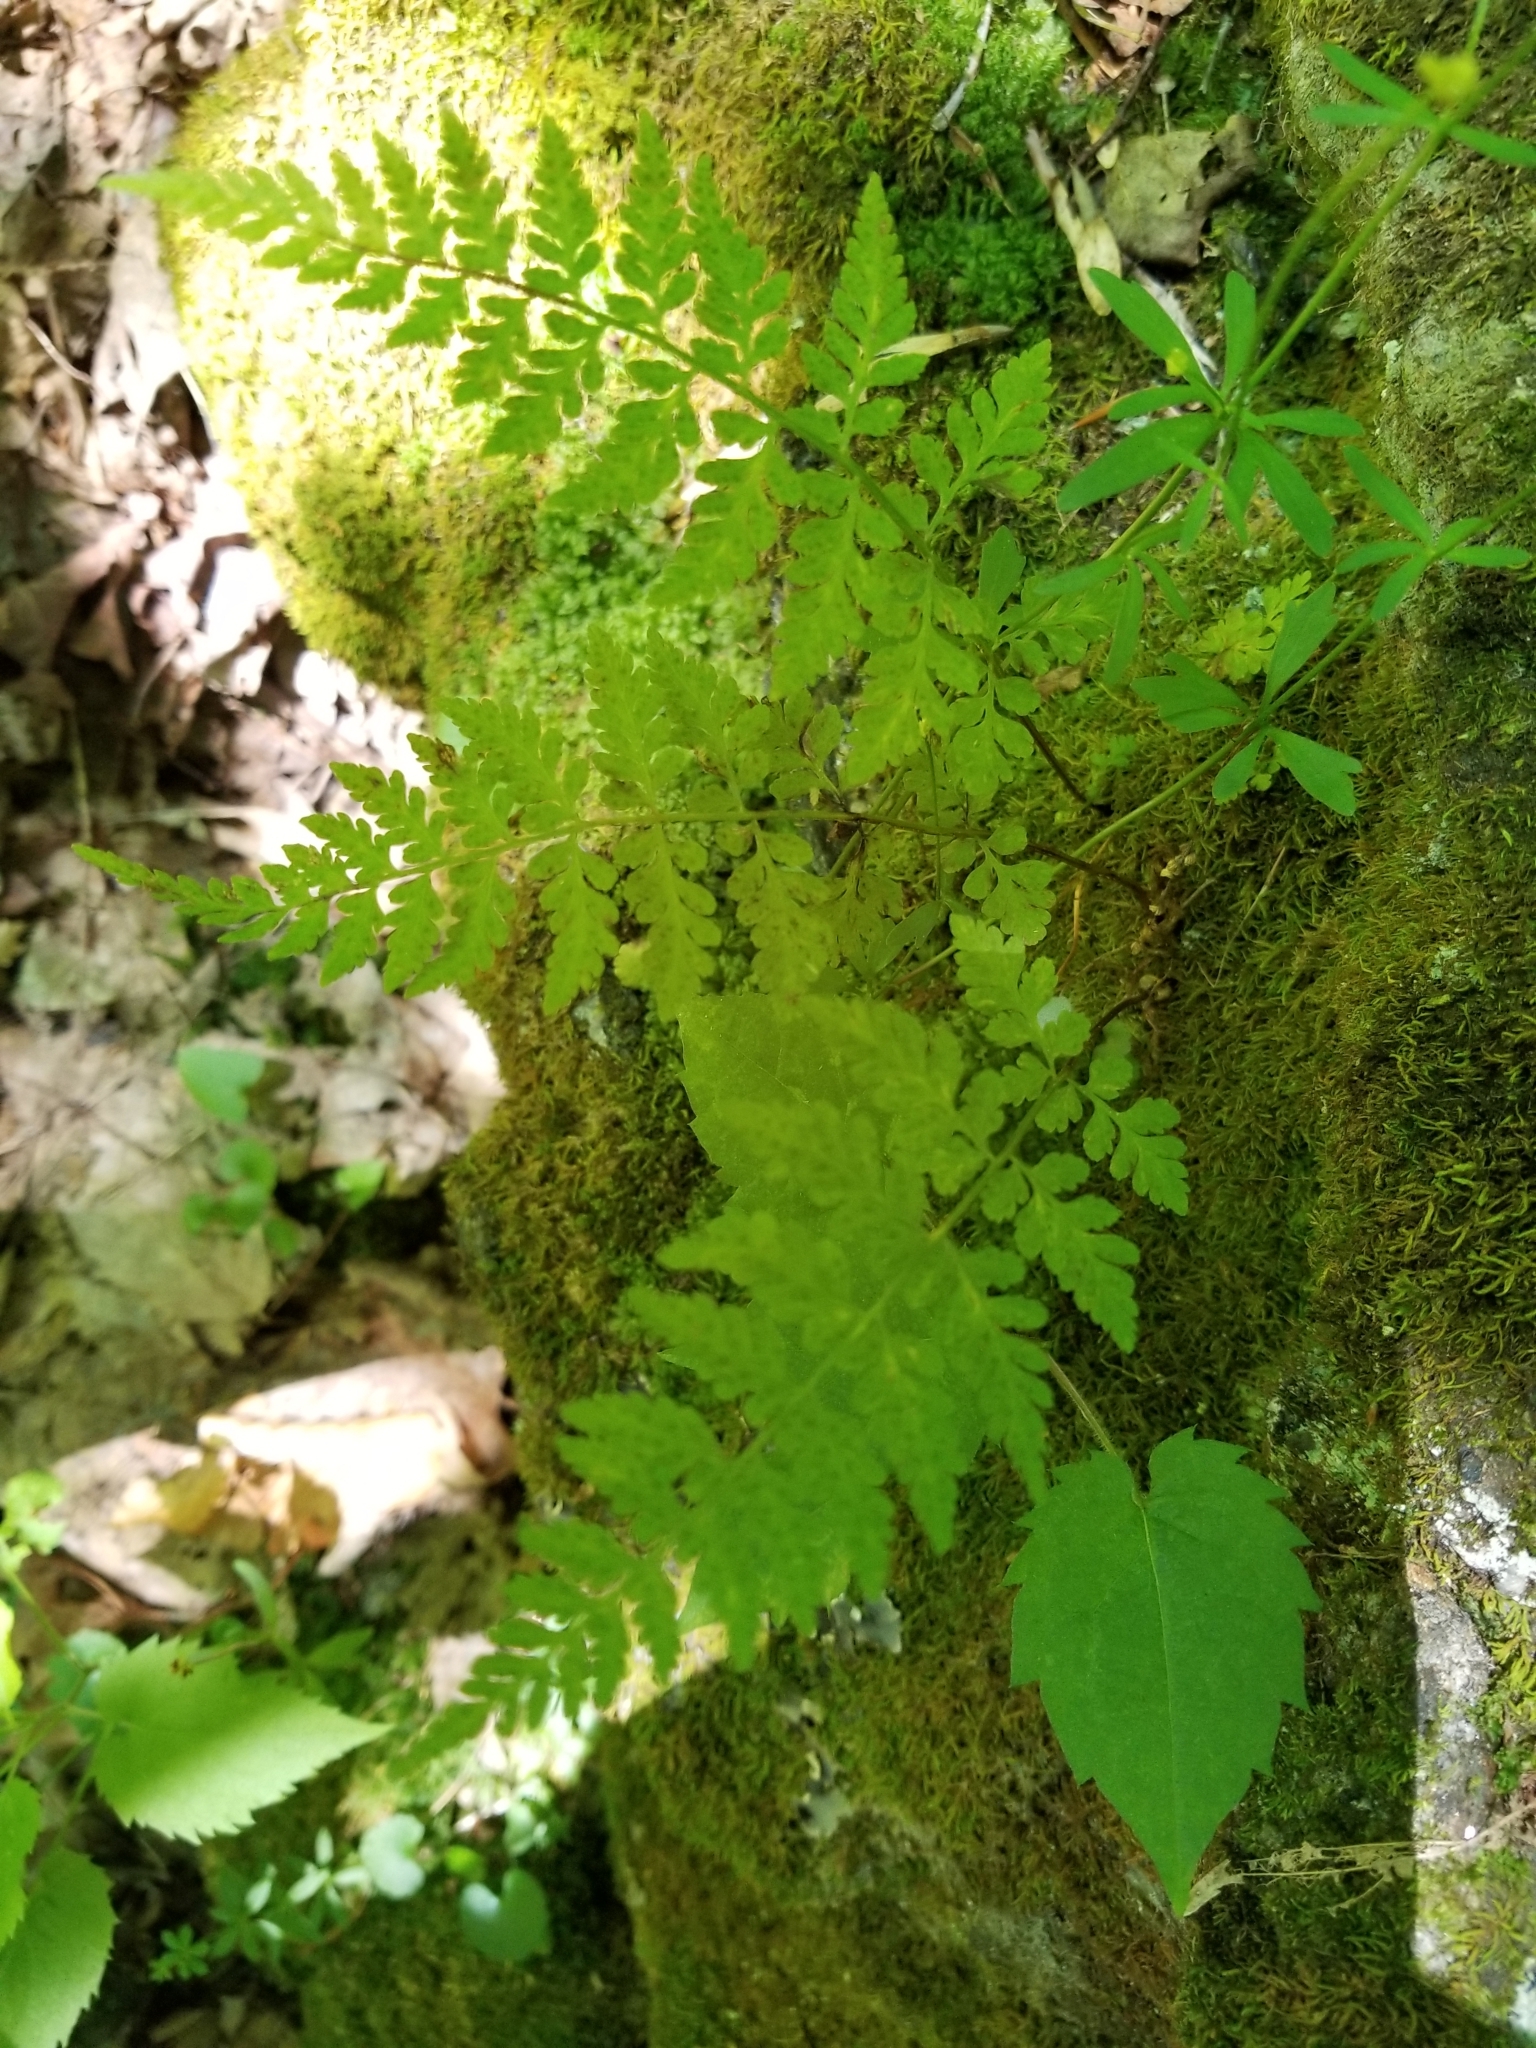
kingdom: Plantae
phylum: Tracheophyta
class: Polypodiopsida
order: Polypodiales
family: Cystopteridaceae
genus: Cystopteris
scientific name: Cystopteris fragilis
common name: Brittle bladder fern
